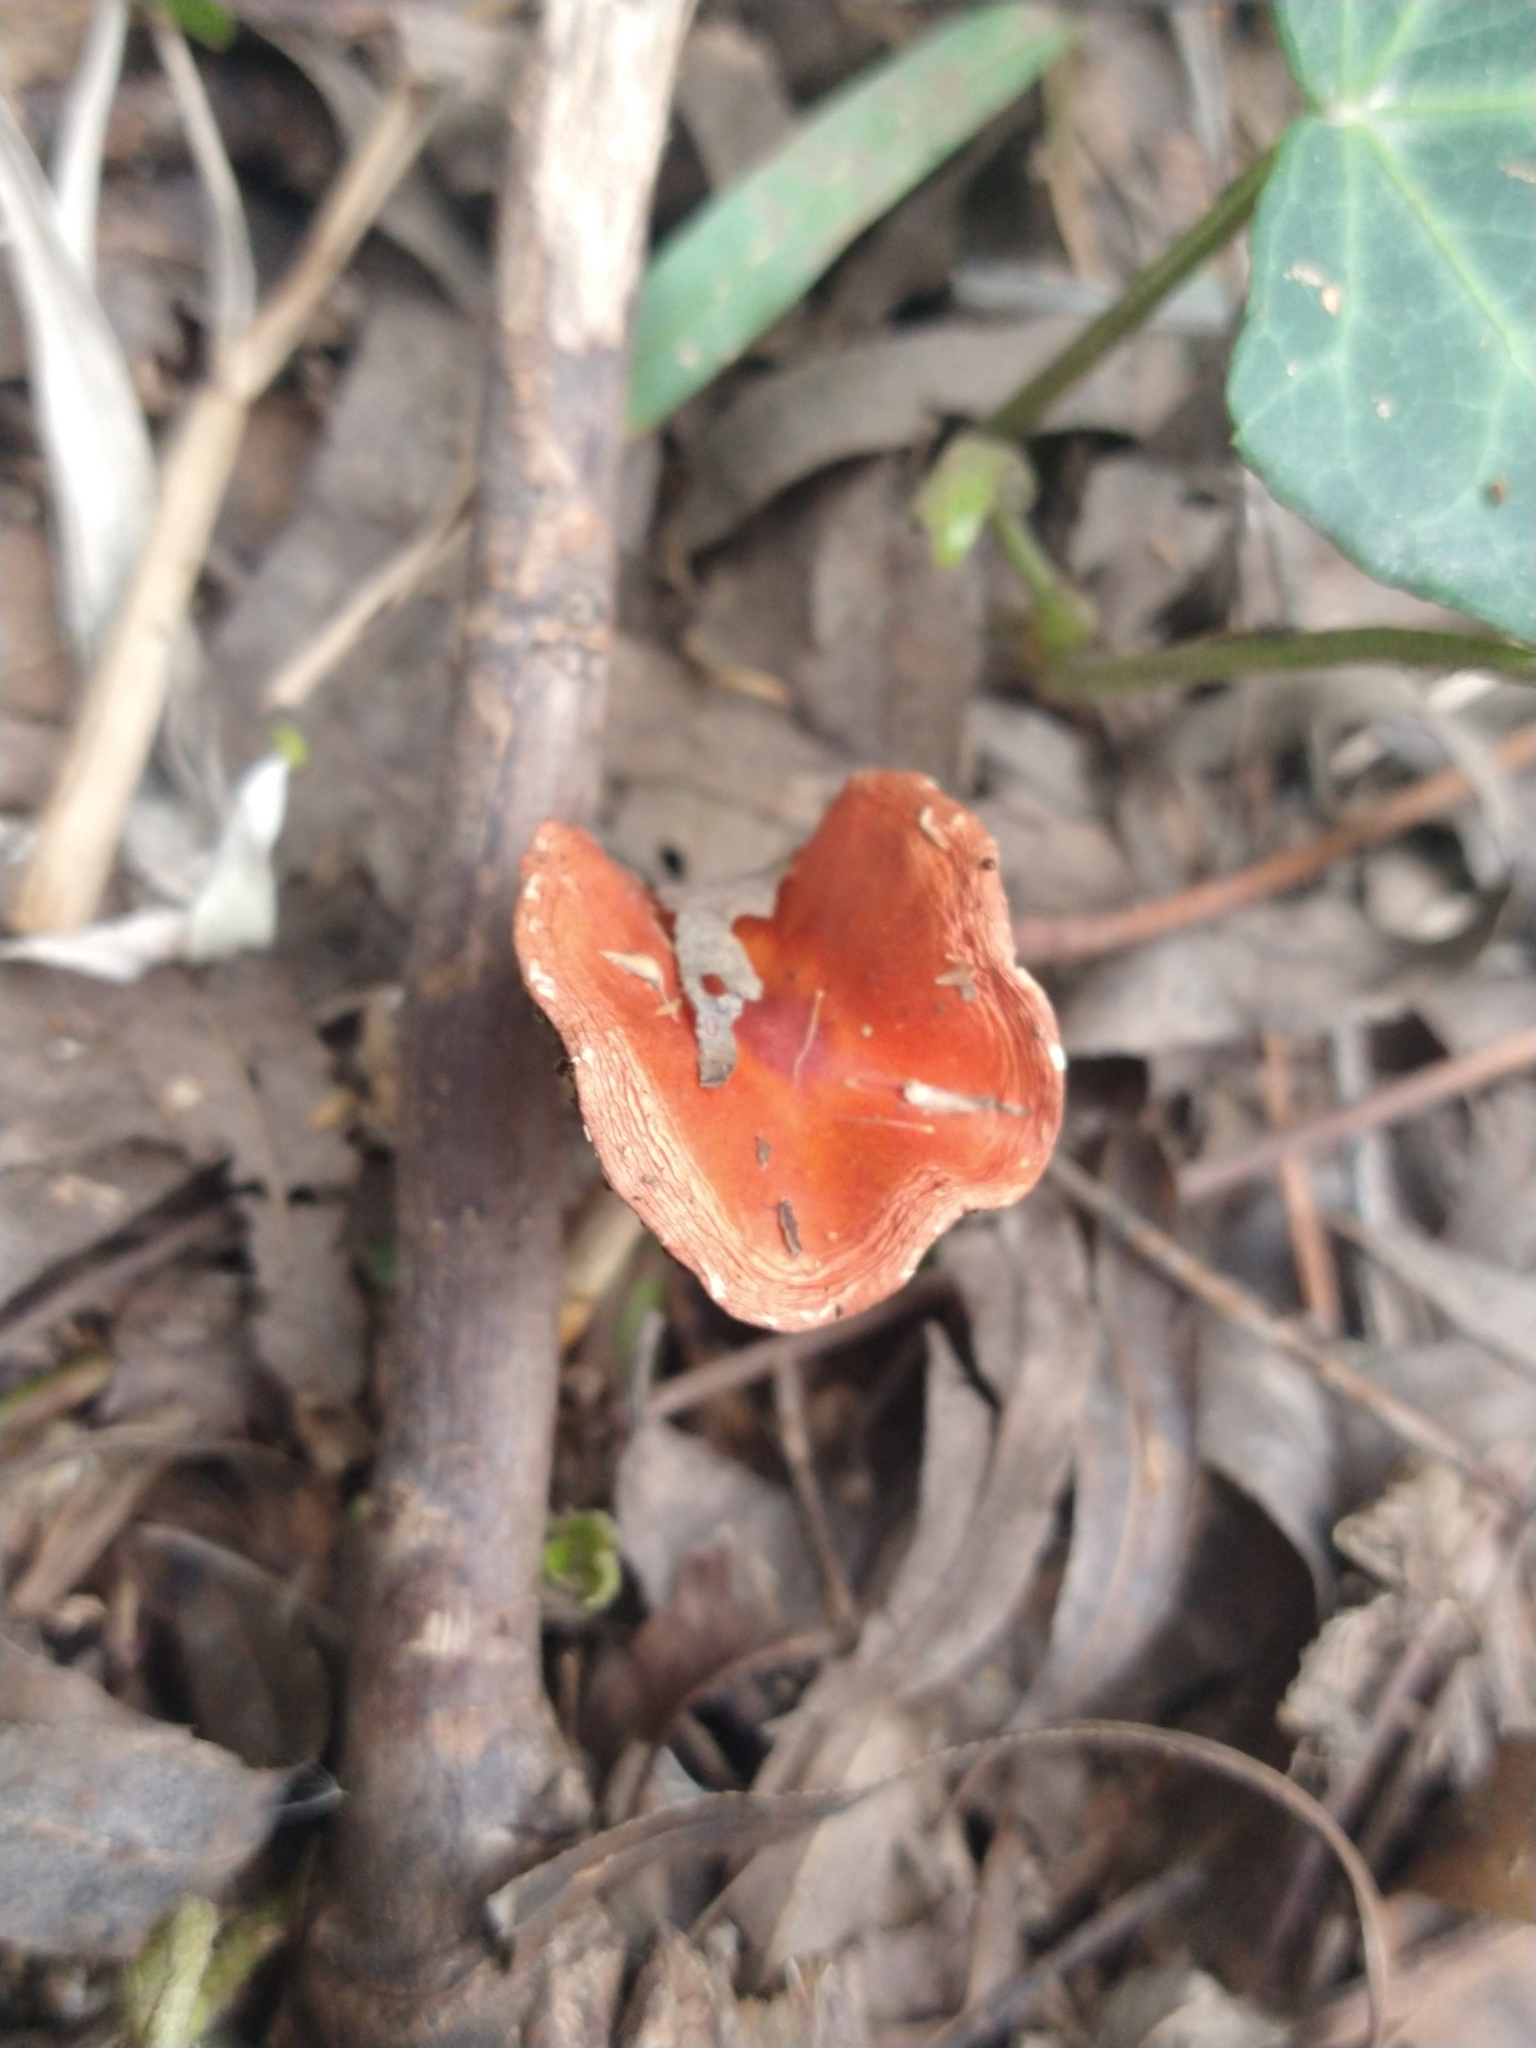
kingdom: Fungi
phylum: Basidiomycota
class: Agaricomycetes
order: Agaricales
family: Strophariaceae
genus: Leratiomyces
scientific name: Leratiomyces ceres
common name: Redlead roundhead
